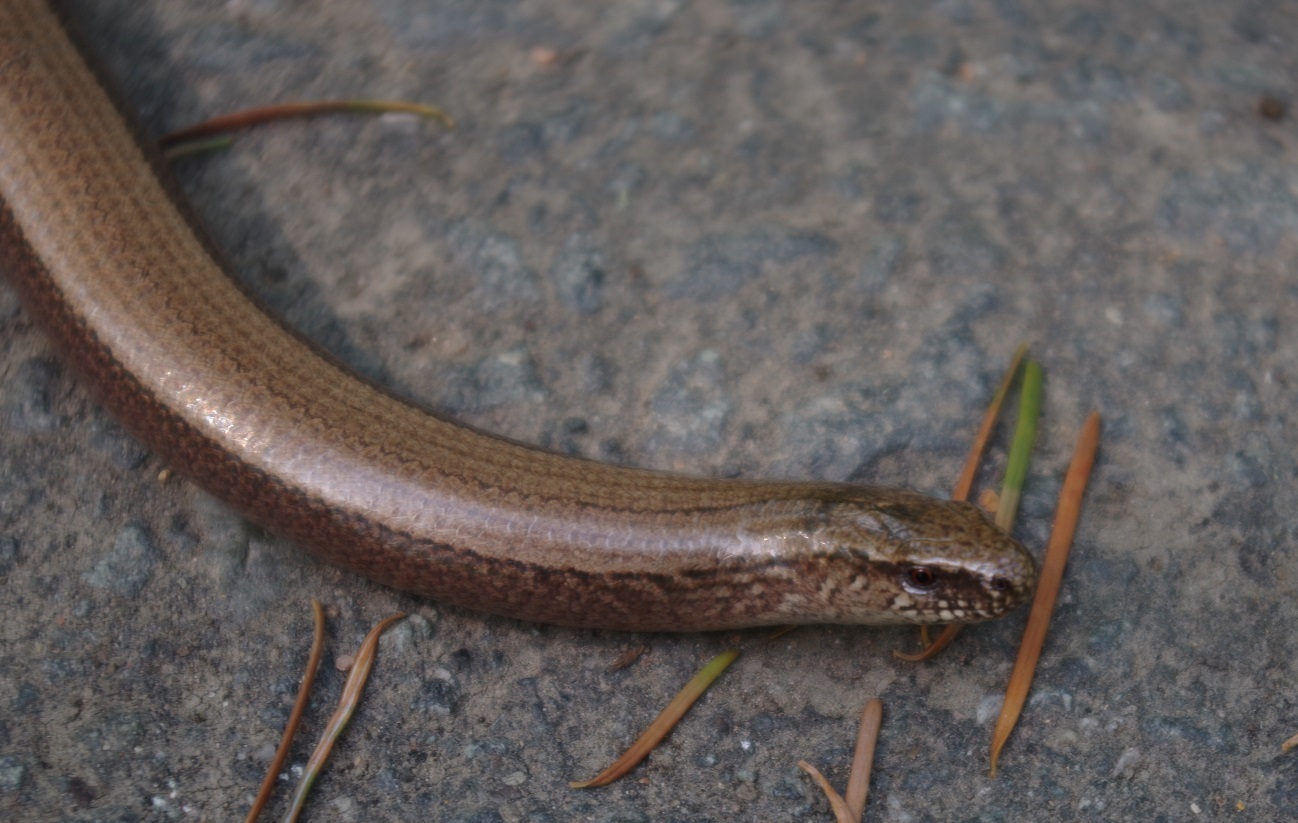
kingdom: Animalia
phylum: Chordata
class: Squamata
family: Anguidae
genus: Anguis
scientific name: Anguis fragilis
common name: Slow worm
